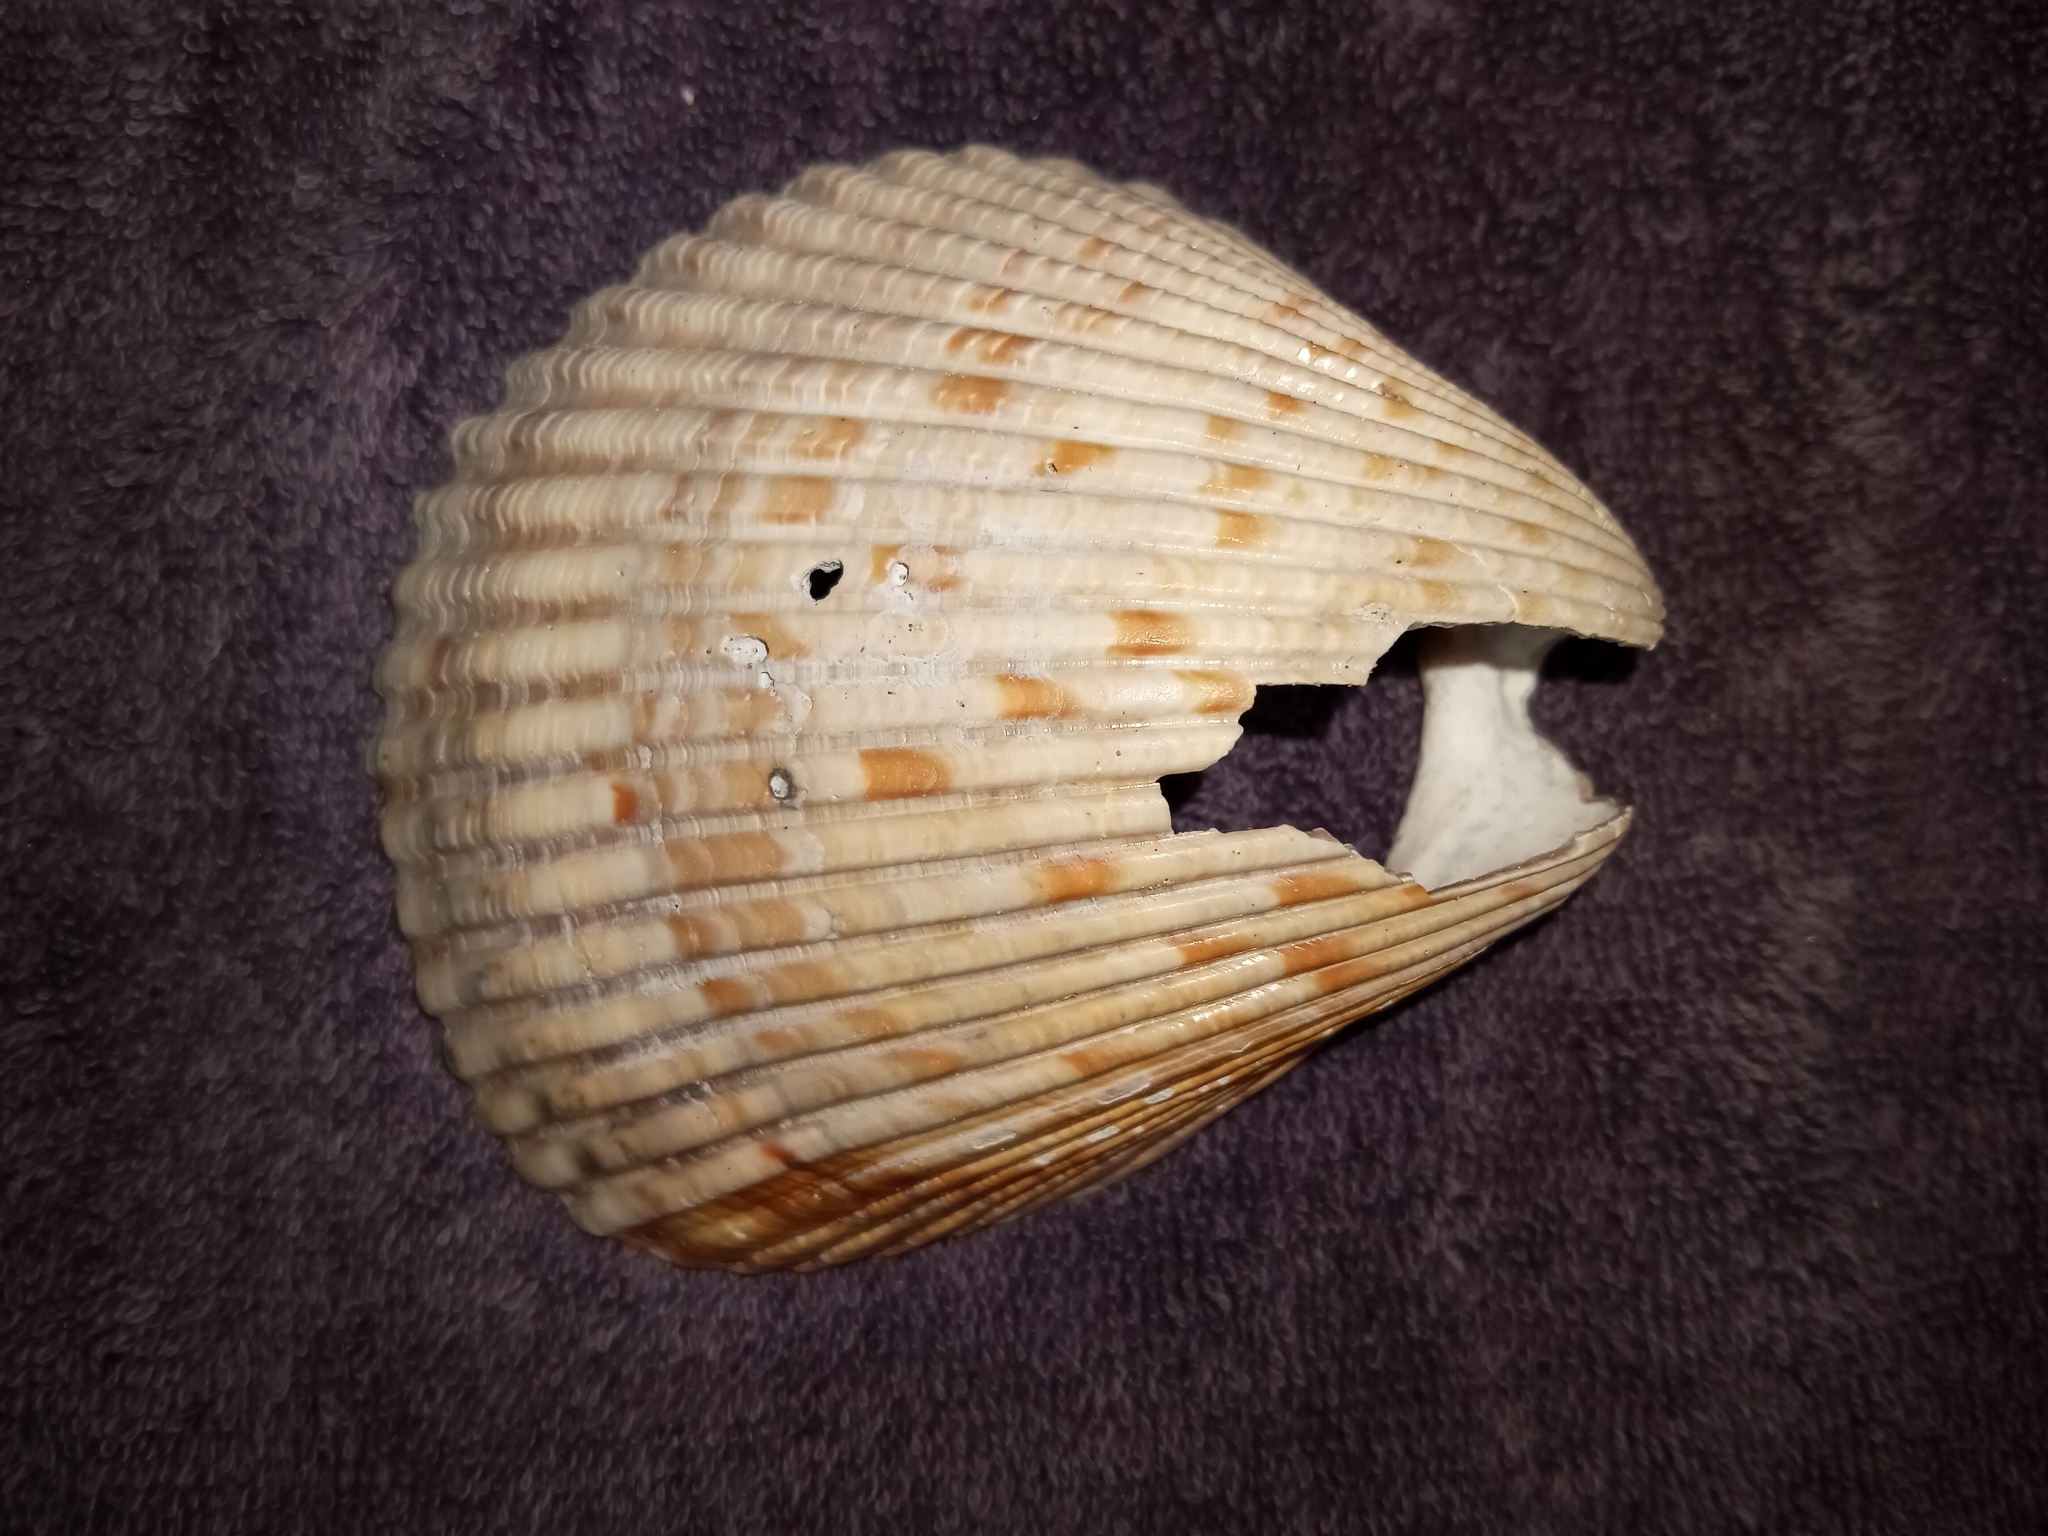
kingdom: Animalia
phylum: Mollusca
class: Bivalvia
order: Cardiida
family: Cardiidae
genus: Dinocardium
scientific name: Dinocardium robustum
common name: Atlantic giant cockle
